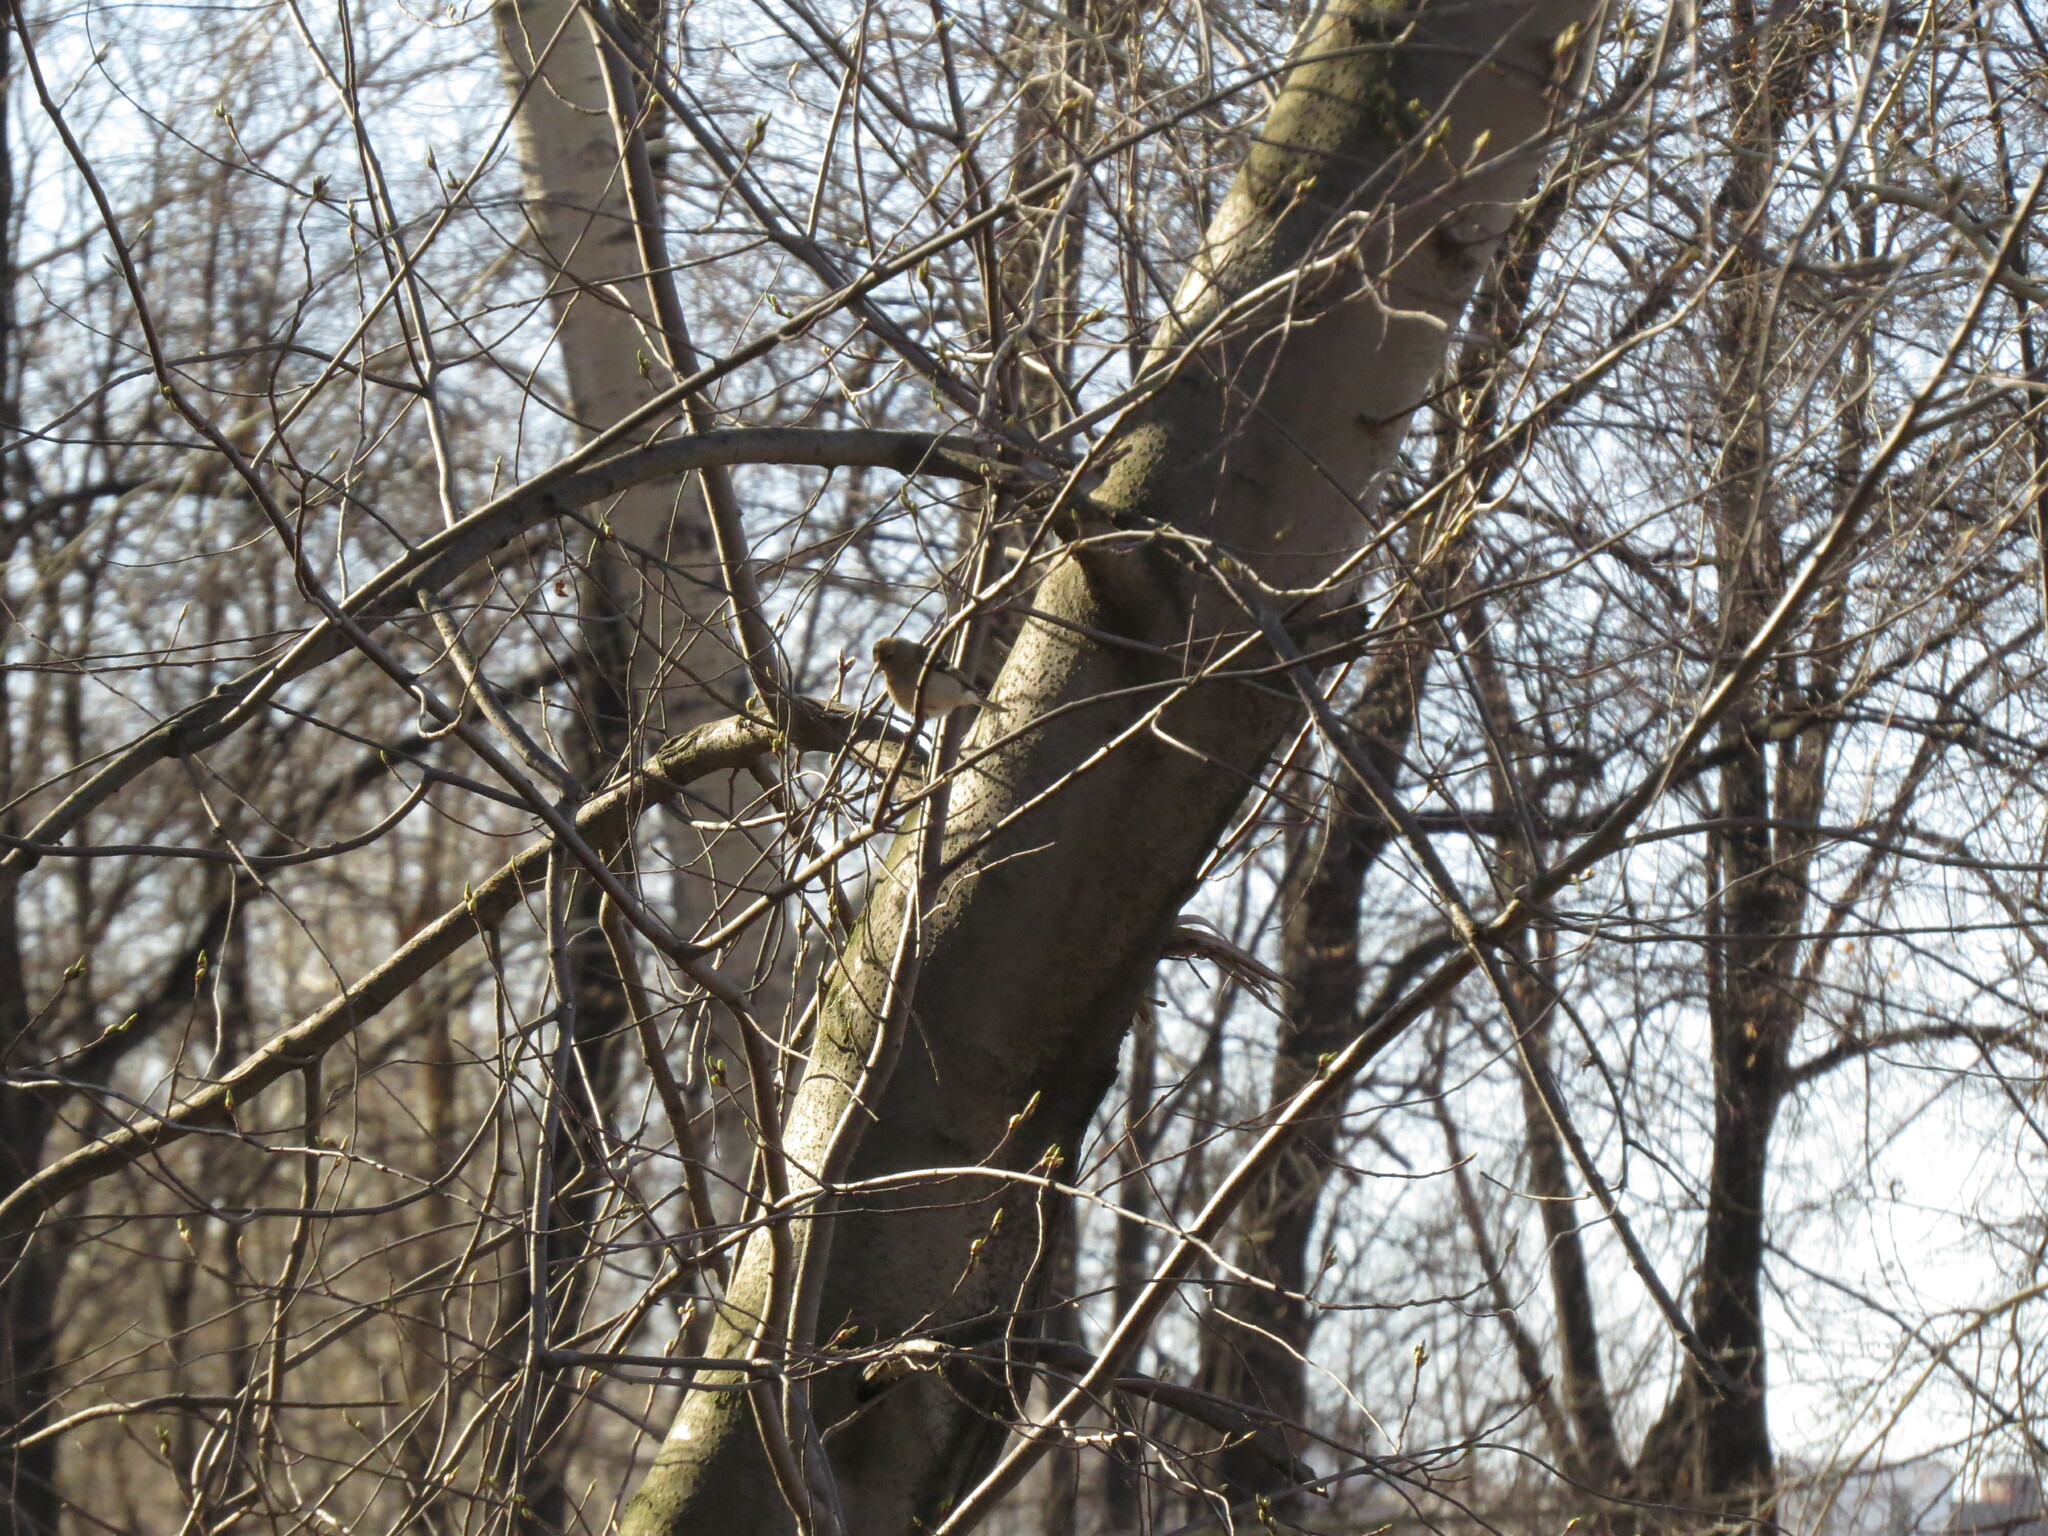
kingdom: Animalia
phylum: Chordata
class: Aves
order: Passeriformes
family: Fringillidae
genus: Fringilla
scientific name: Fringilla coelebs
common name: Common chaffinch
